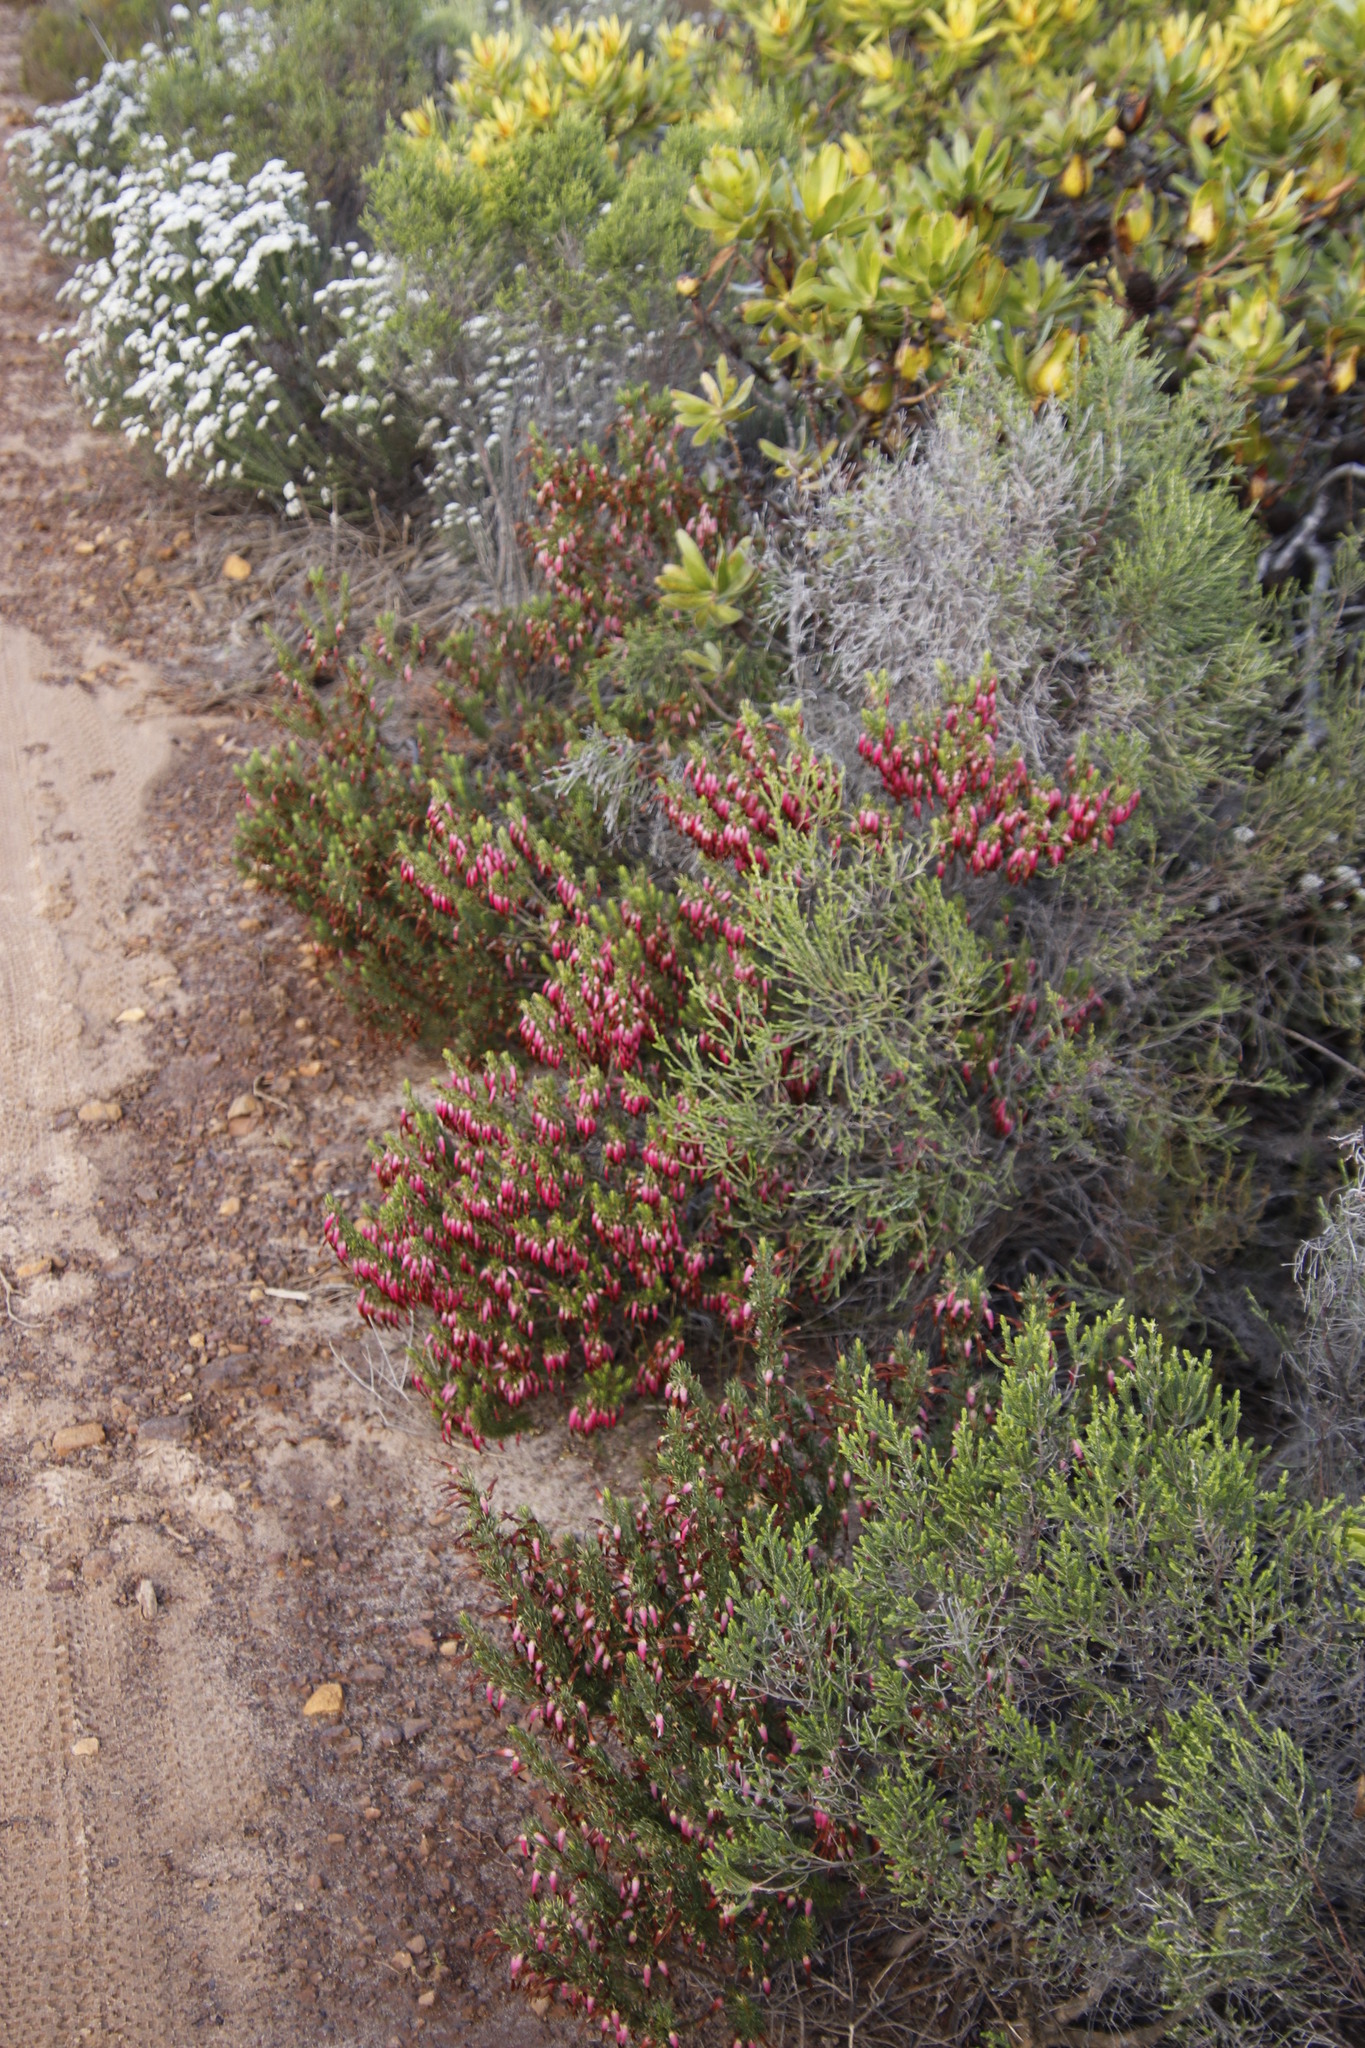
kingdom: Plantae
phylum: Tracheophyta
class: Magnoliopsida
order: Ericales
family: Ericaceae
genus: Erica
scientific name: Erica plukenetii
